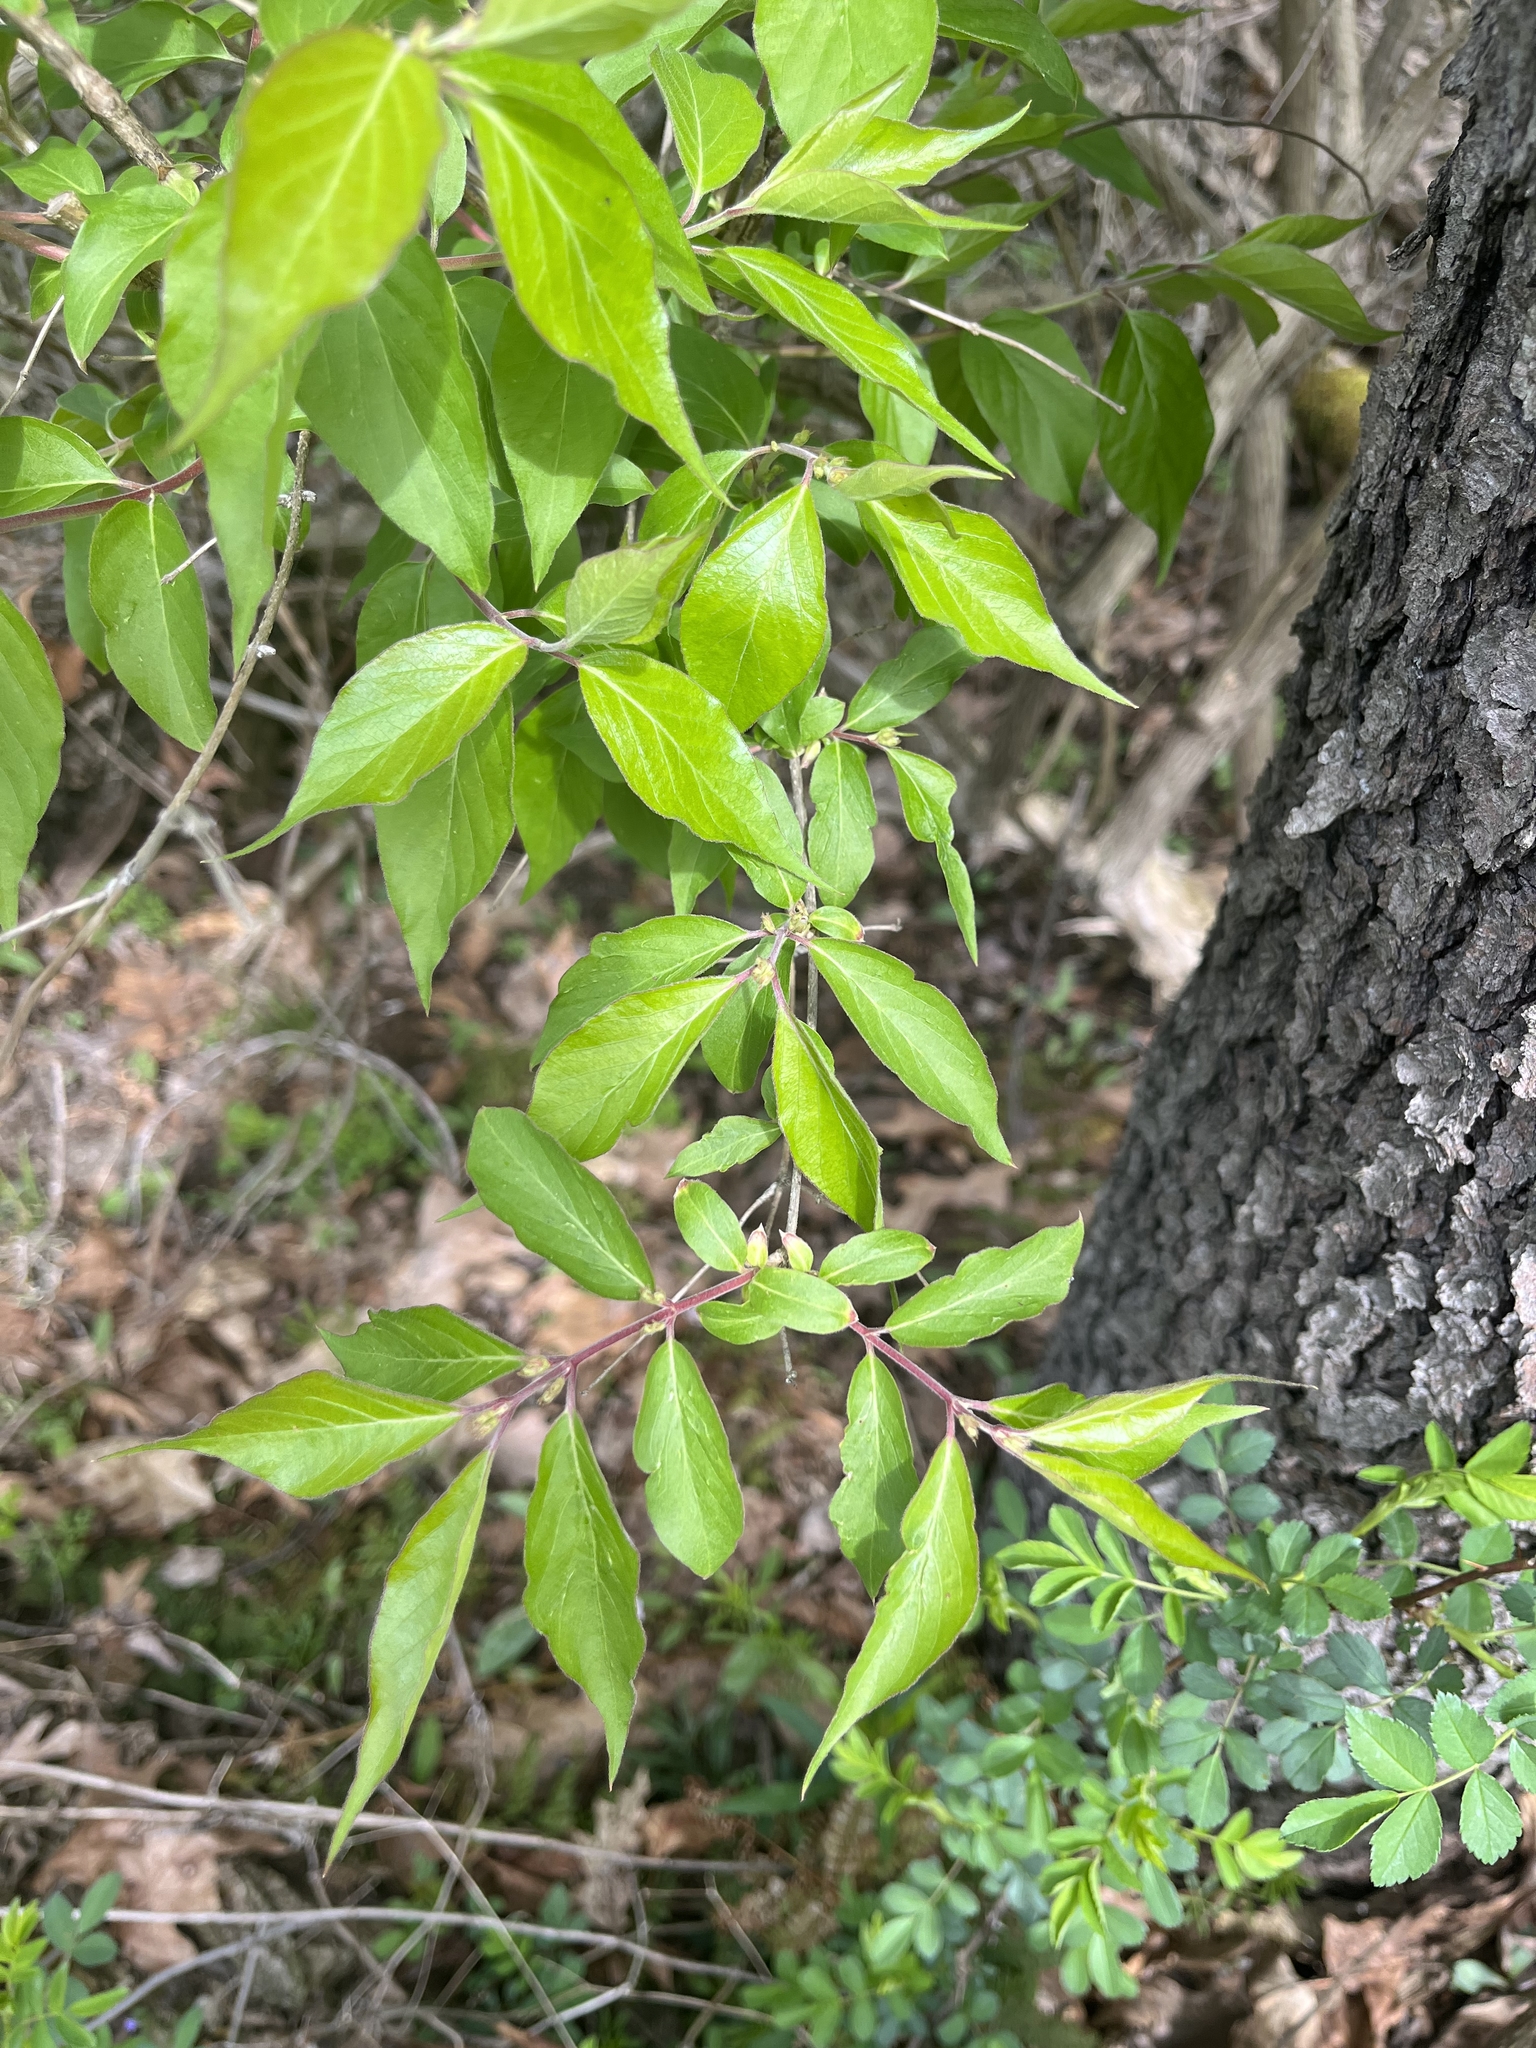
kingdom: Plantae
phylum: Tracheophyta
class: Magnoliopsida
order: Dipsacales
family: Caprifoliaceae
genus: Lonicera
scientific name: Lonicera maackii
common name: Amur honeysuckle
